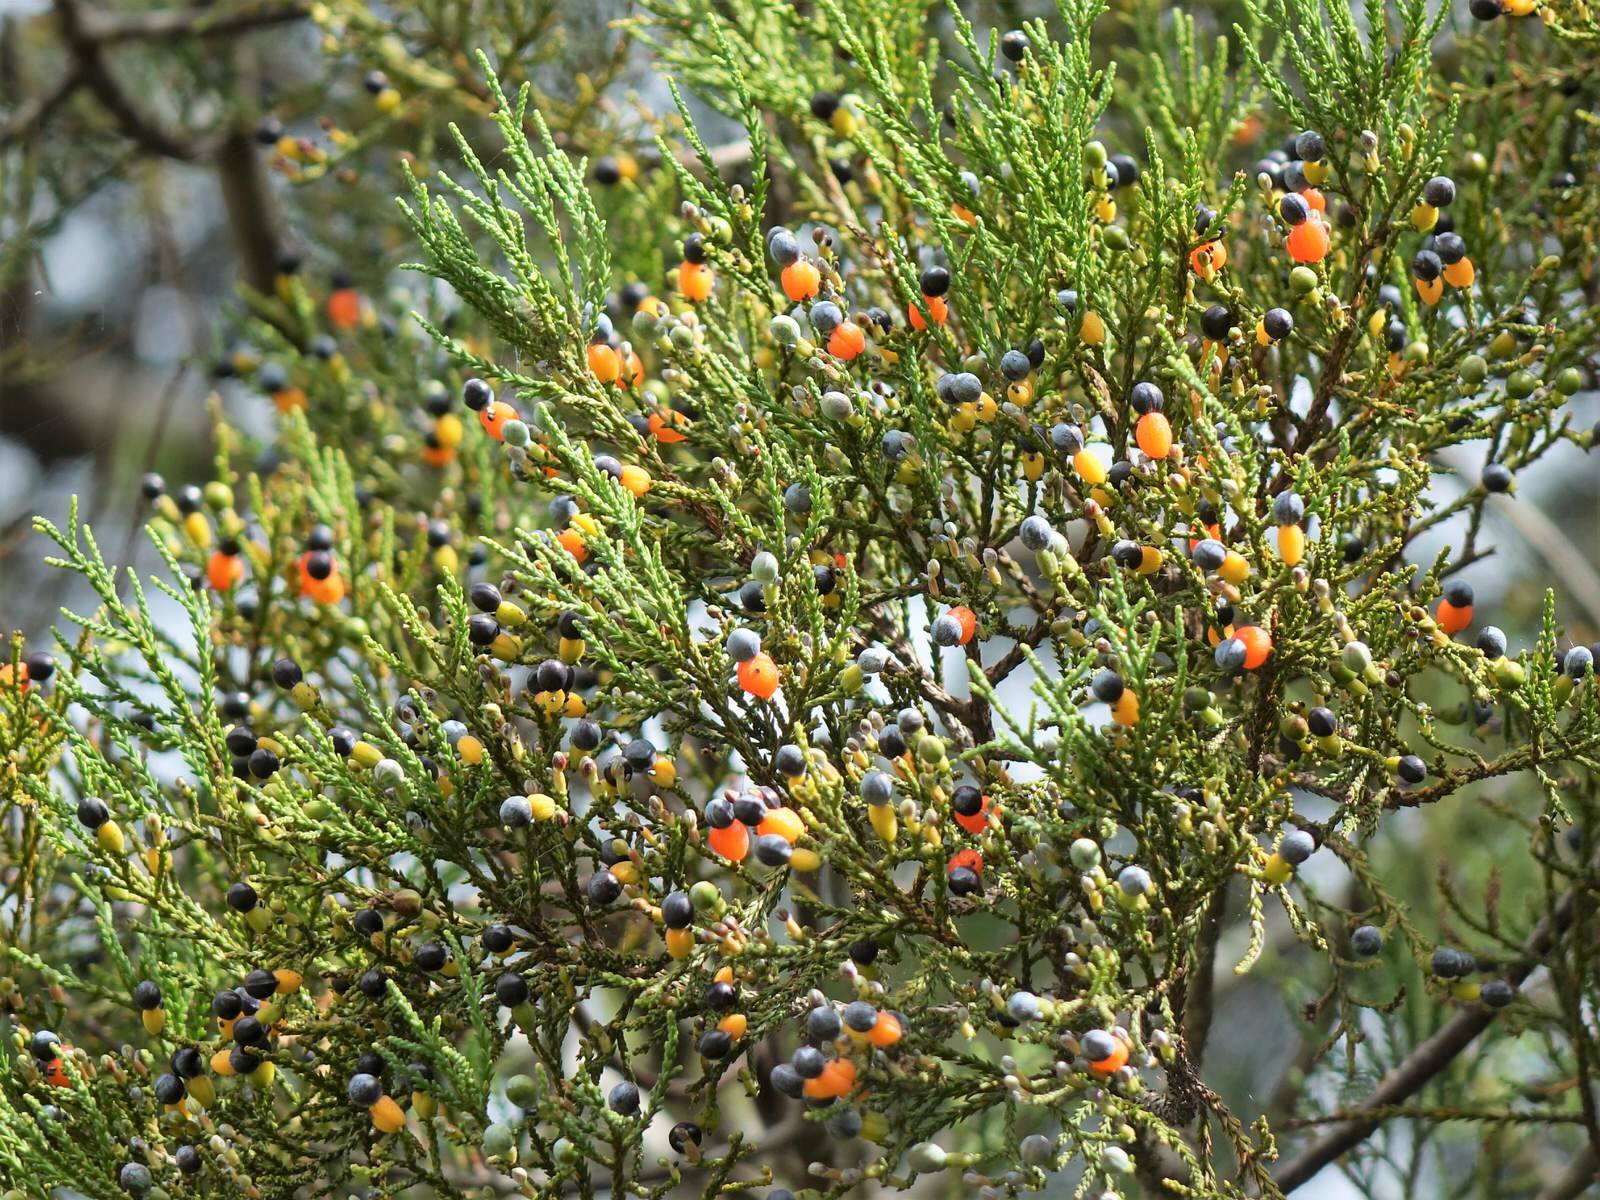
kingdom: Plantae
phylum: Tracheophyta
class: Pinopsida
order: Pinales
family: Podocarpaceae
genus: Dacrycarpus
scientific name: Dacrycarpus dacrydioides
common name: White pine
